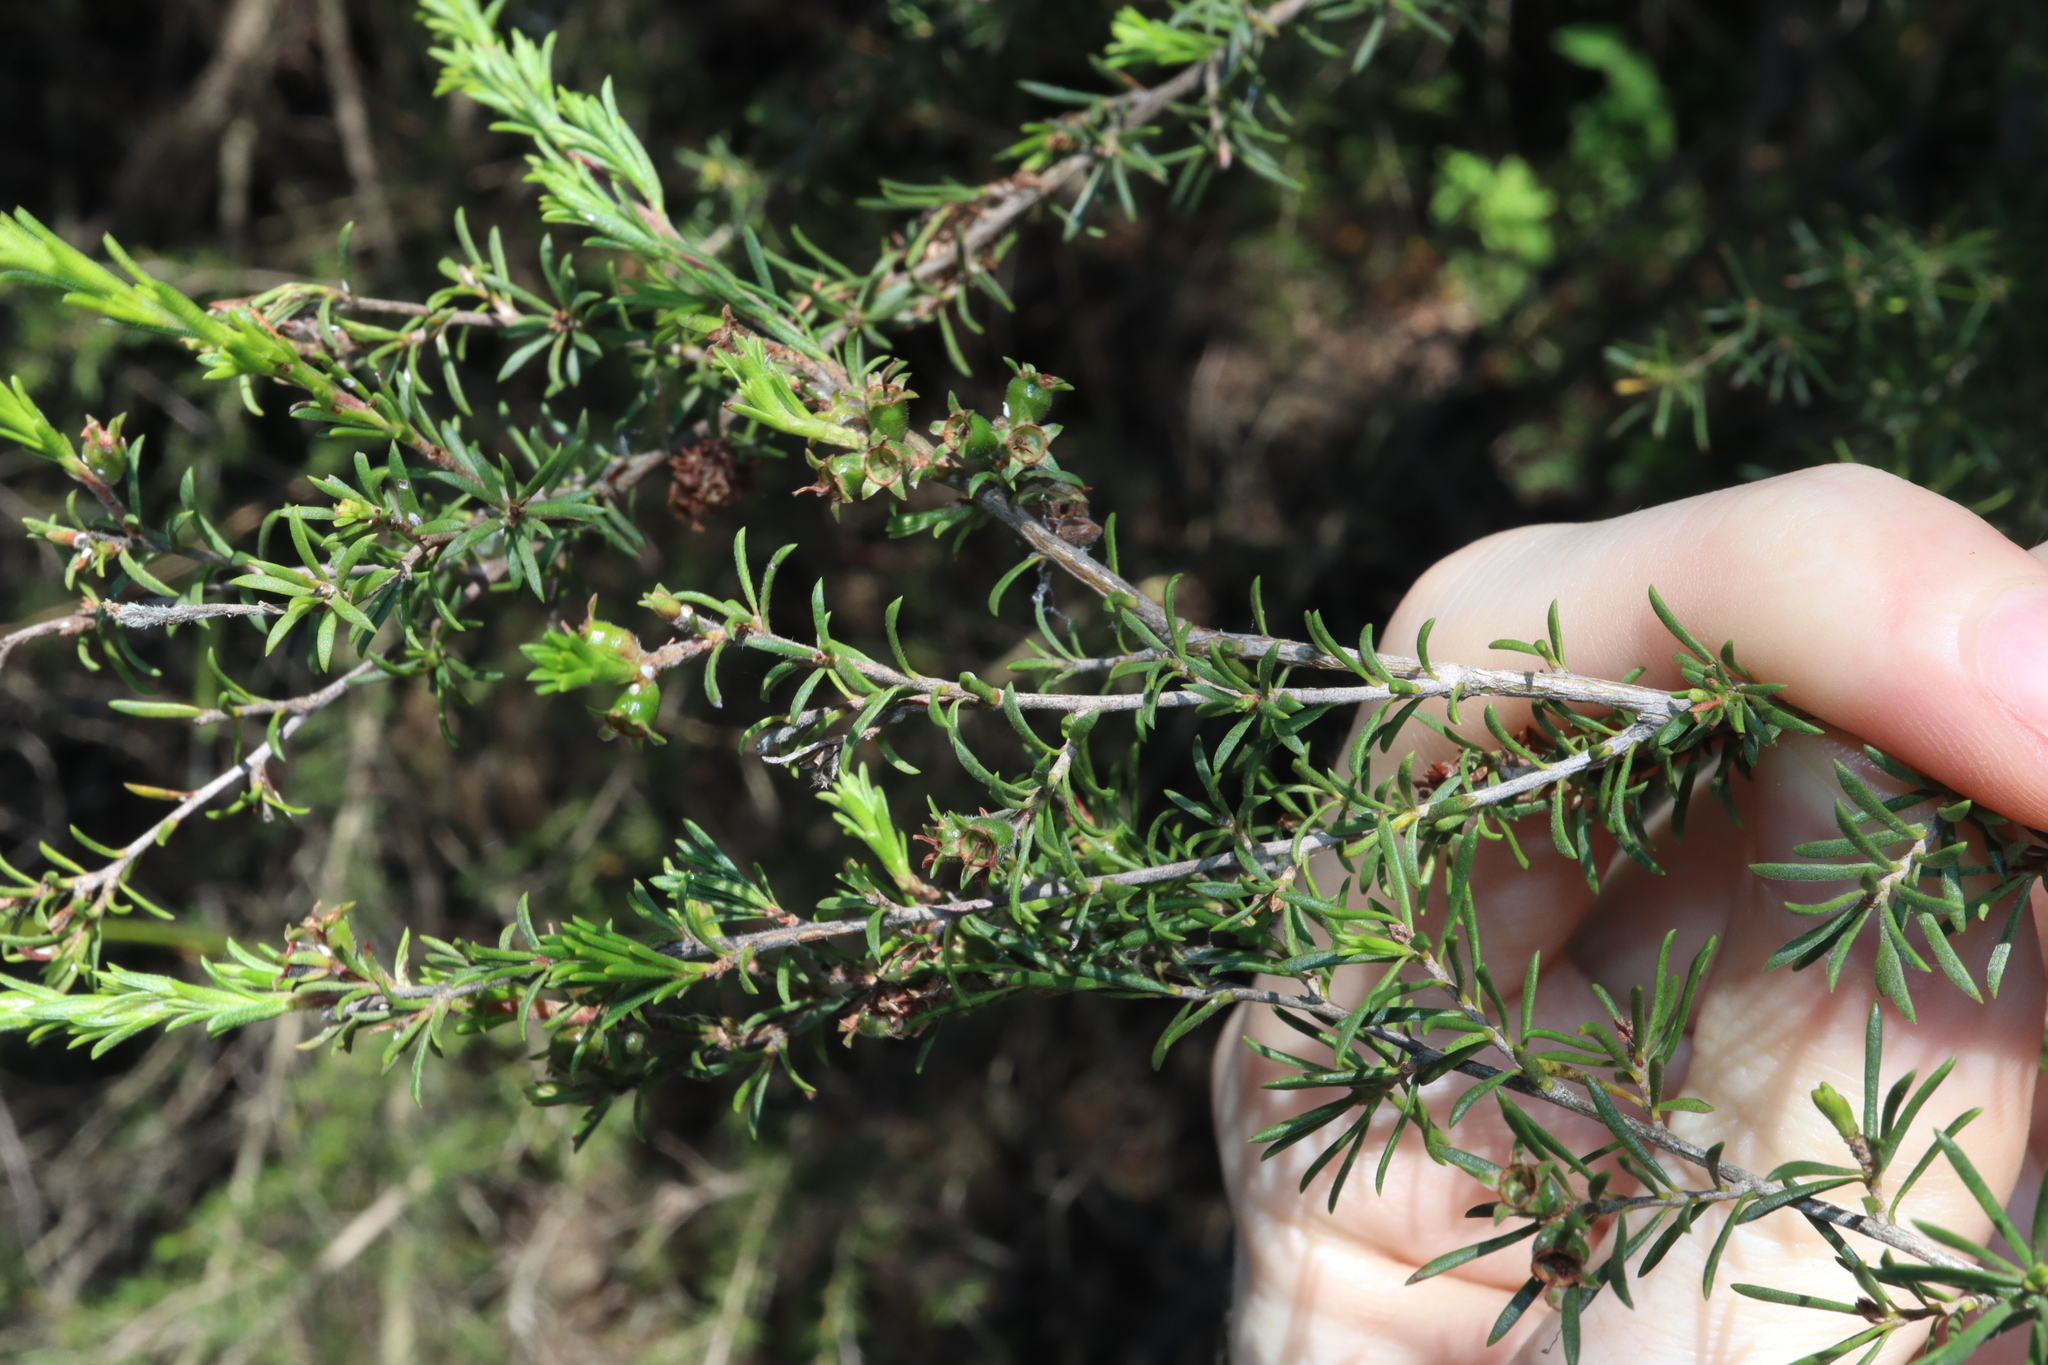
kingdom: Plantae
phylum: Tracheophyta
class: Magnoliopsida
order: Myrtales
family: Myrtaceae
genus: Kunzea
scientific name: Kunzea ambigua
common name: Tickbush
